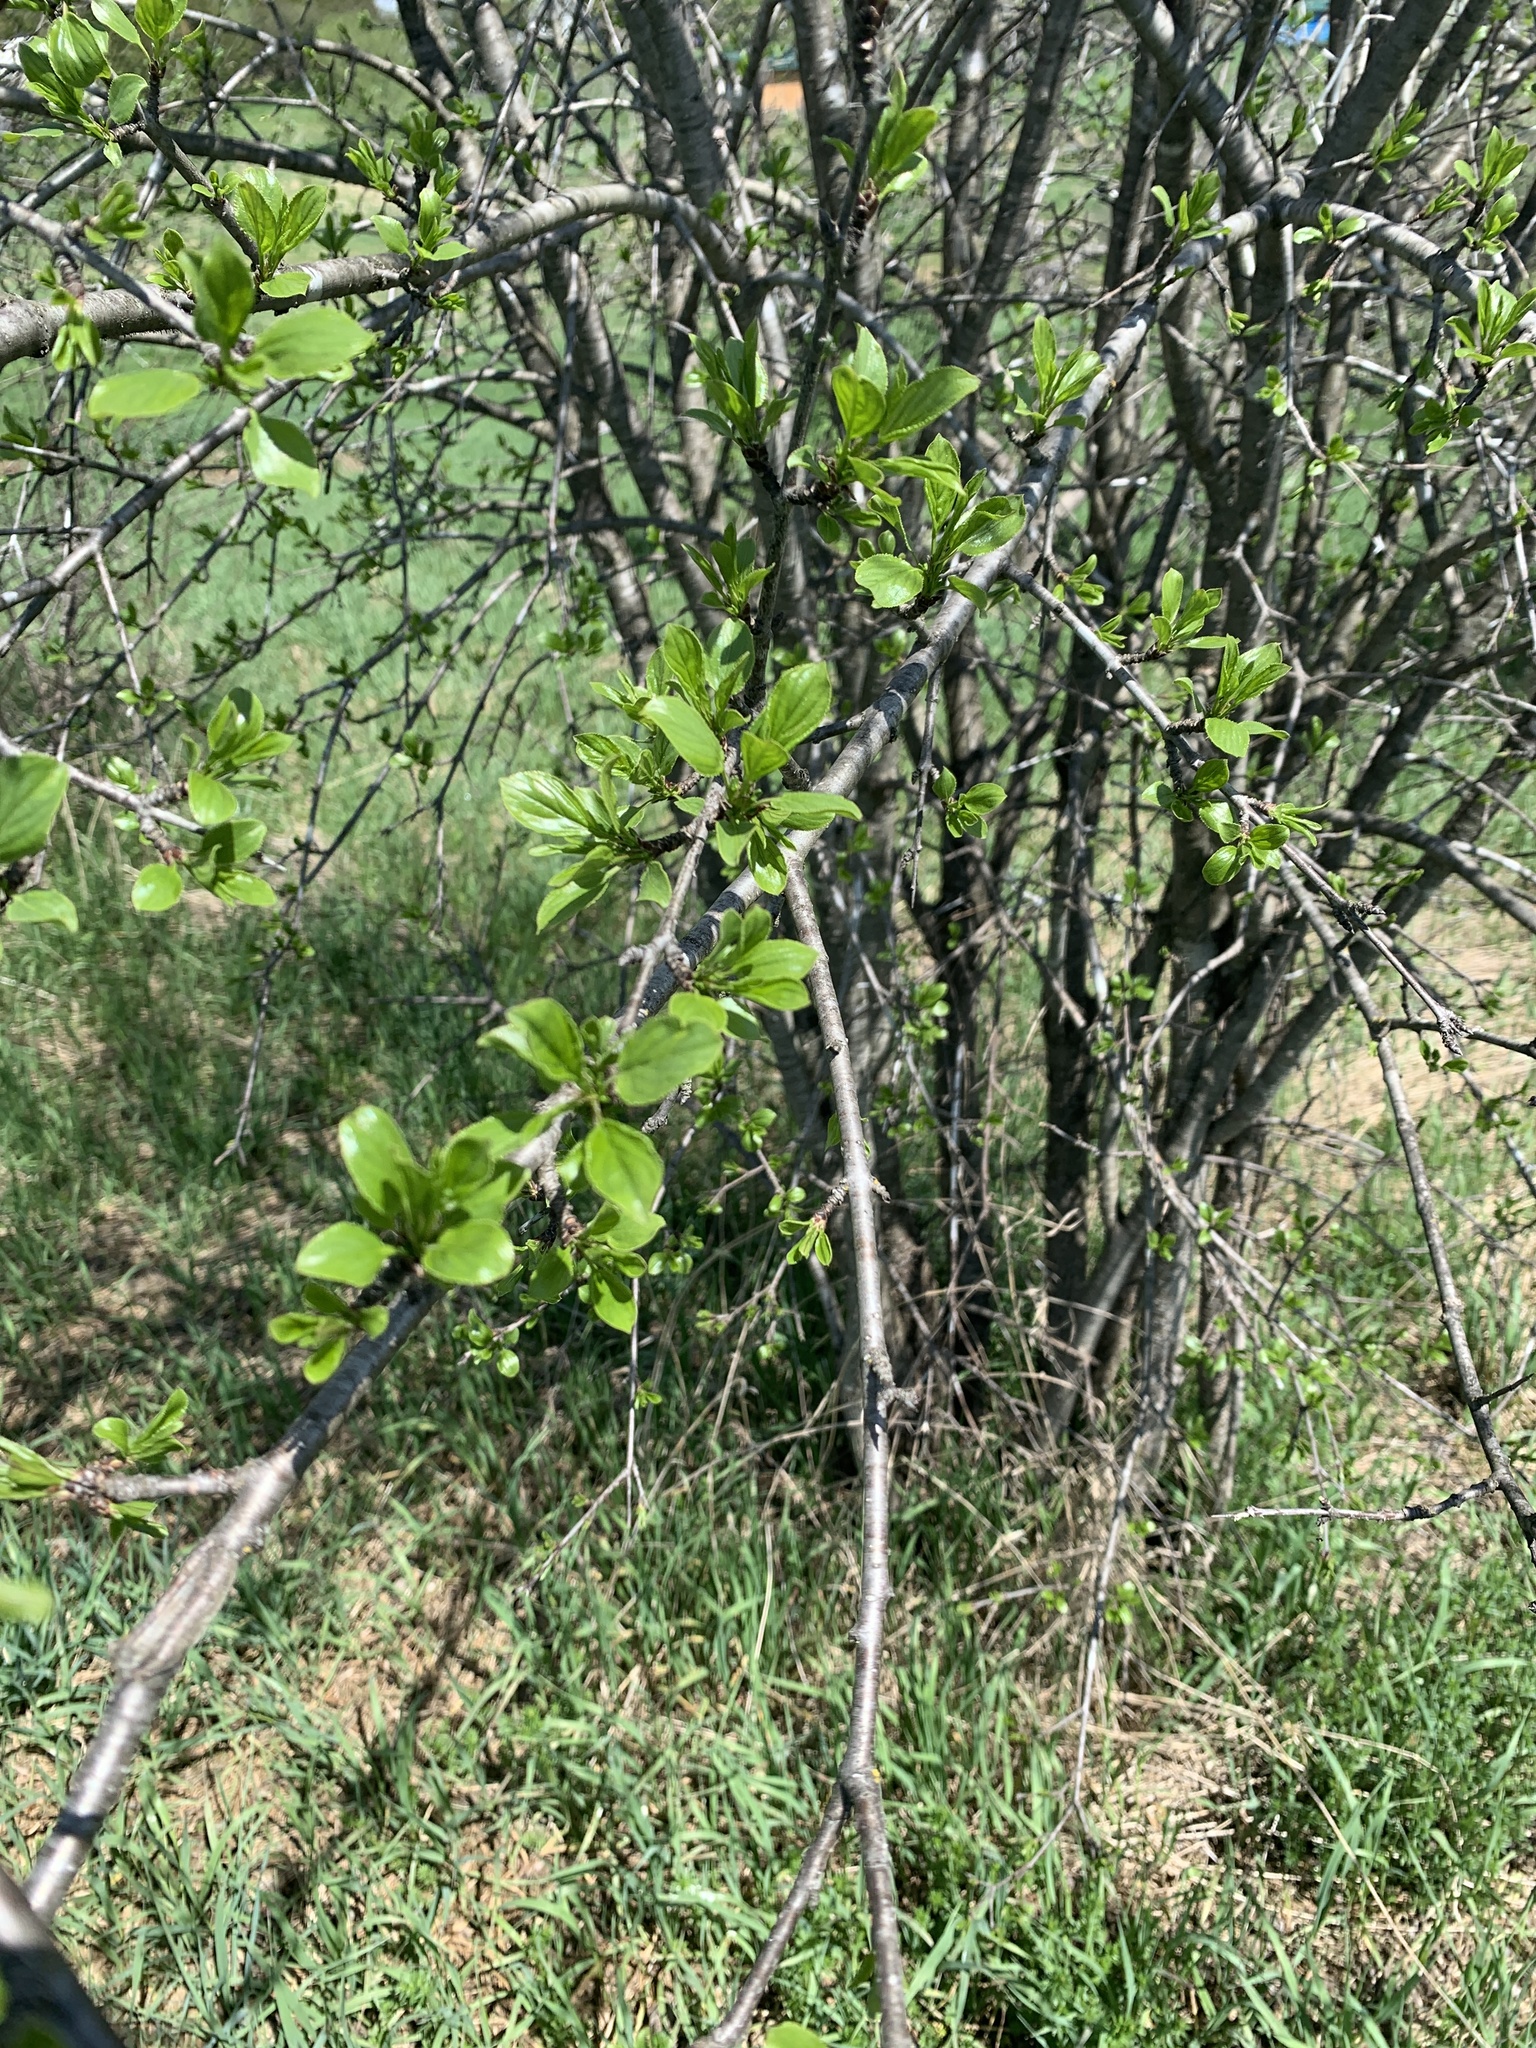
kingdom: Plantae
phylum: Tracheophyta
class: Magnoliopsida
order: Rosales
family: Rhamnaceae
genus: Rhamnus
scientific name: Rhamnus cathartica
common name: Common buckthorn
